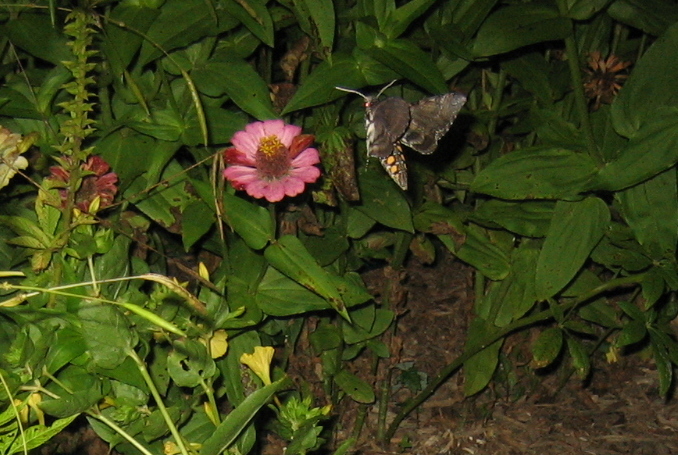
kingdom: Animalia
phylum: Arthropoda
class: Insecta
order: Lepidoptera
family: Sphingidae
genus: Manduca
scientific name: Manduca sexta
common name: Carolina sphinx
